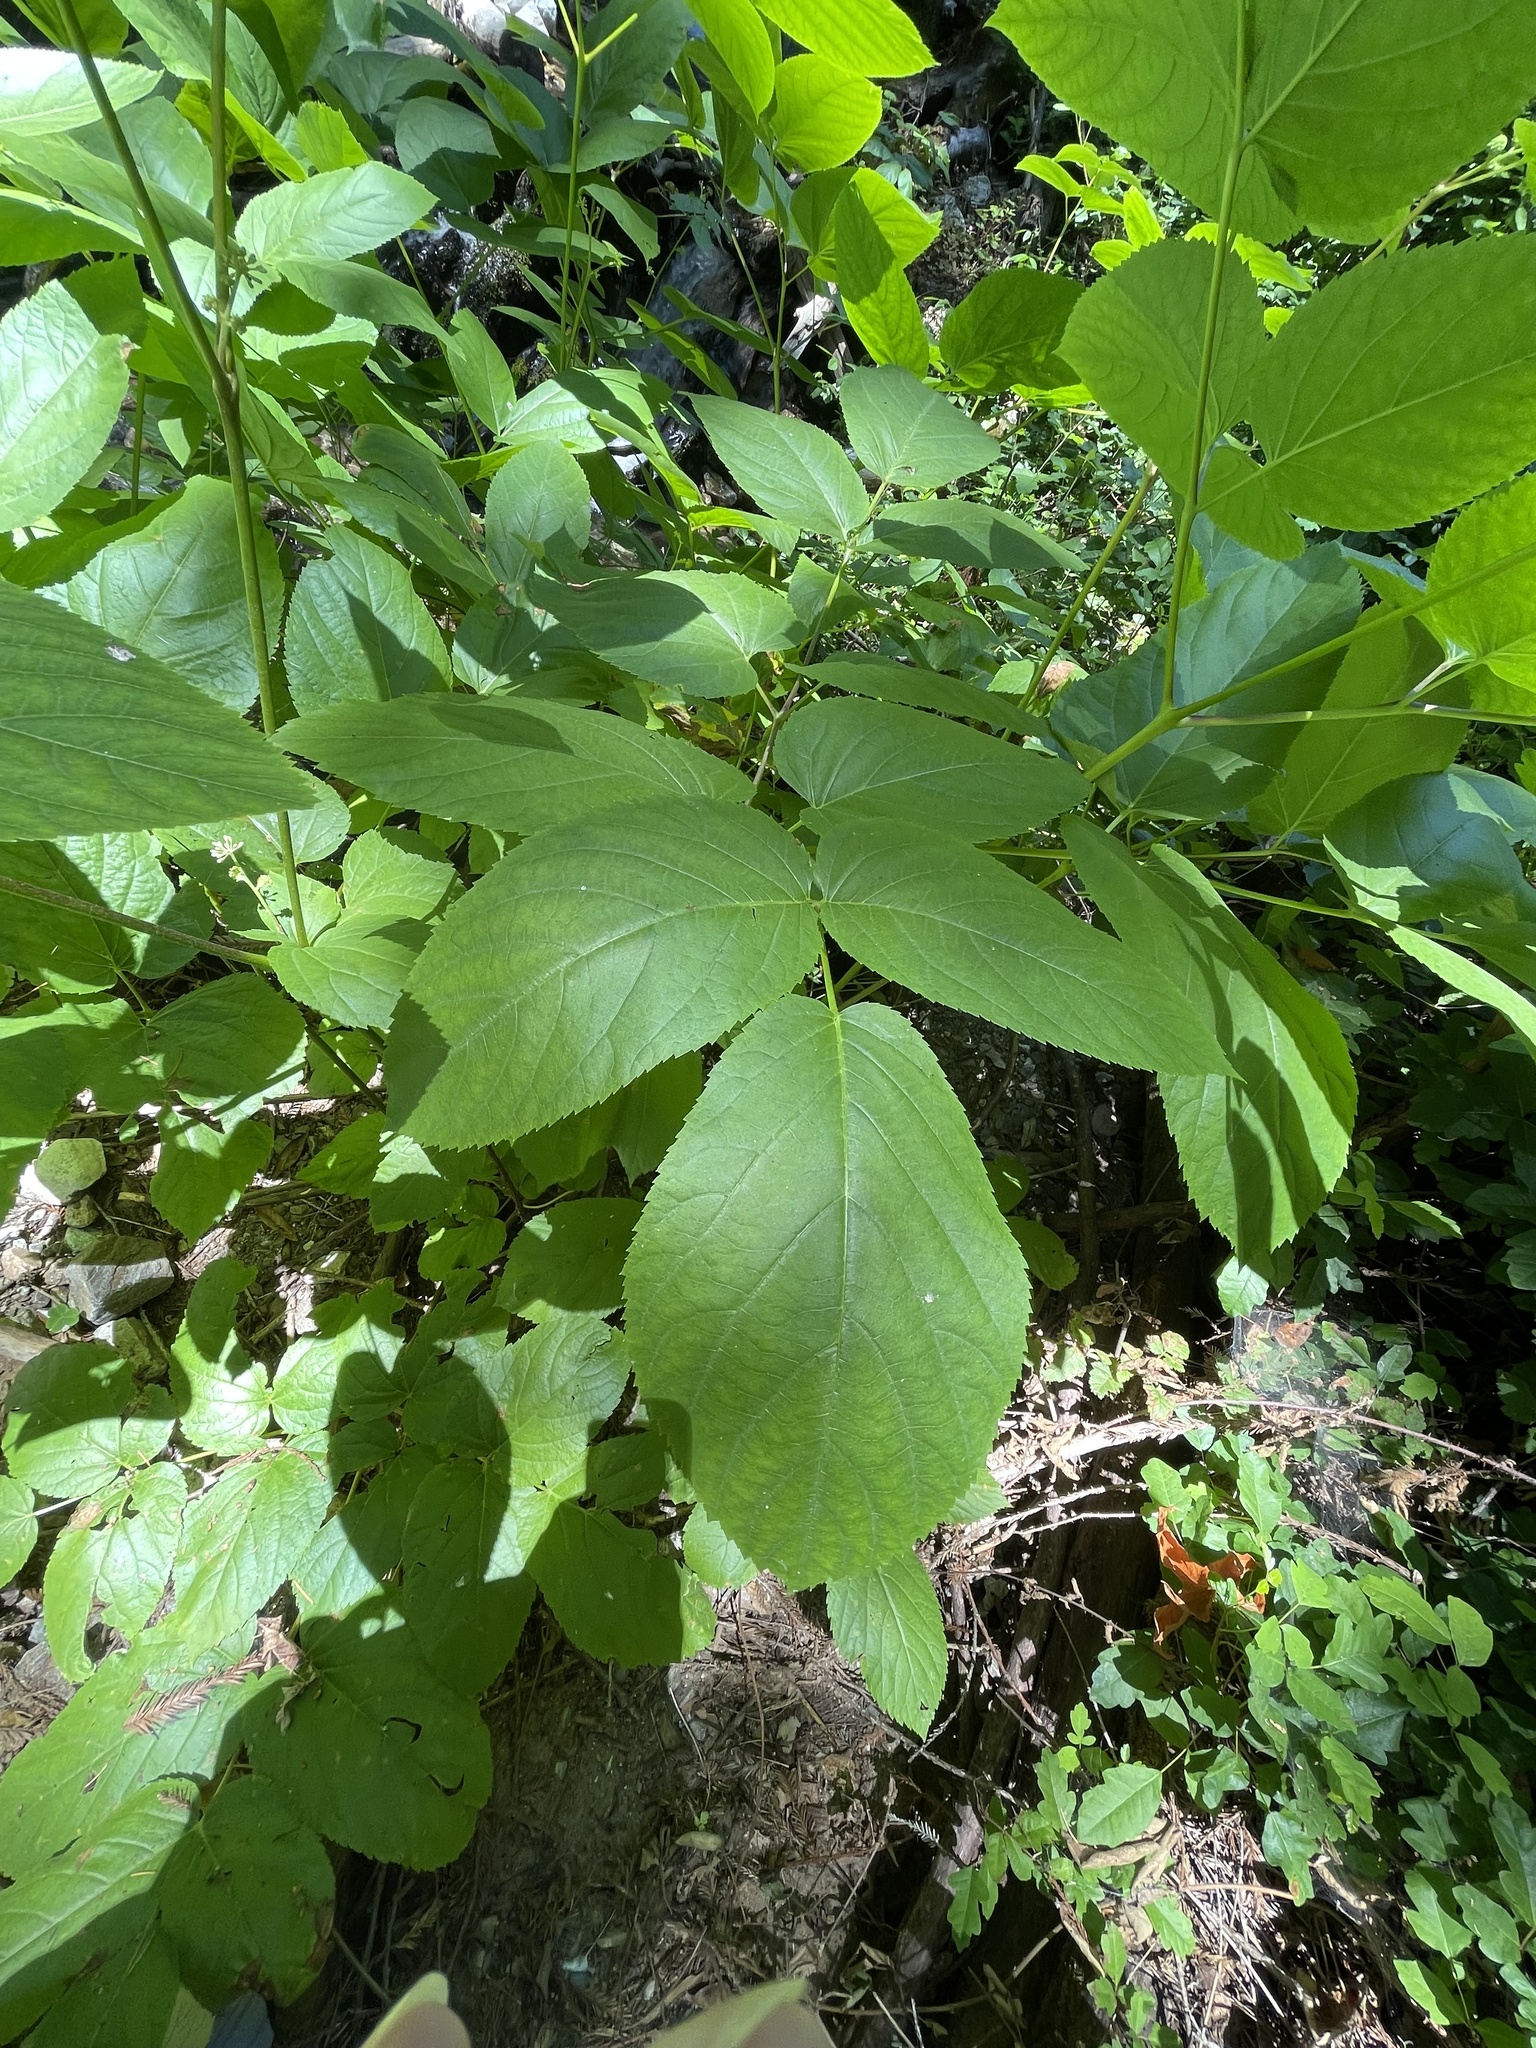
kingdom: Plantae
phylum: Tracheophyta
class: Magnoliopsida
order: Apiales
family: Araliaceae
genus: Aralia
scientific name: Aralia californica
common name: California-ginseng
